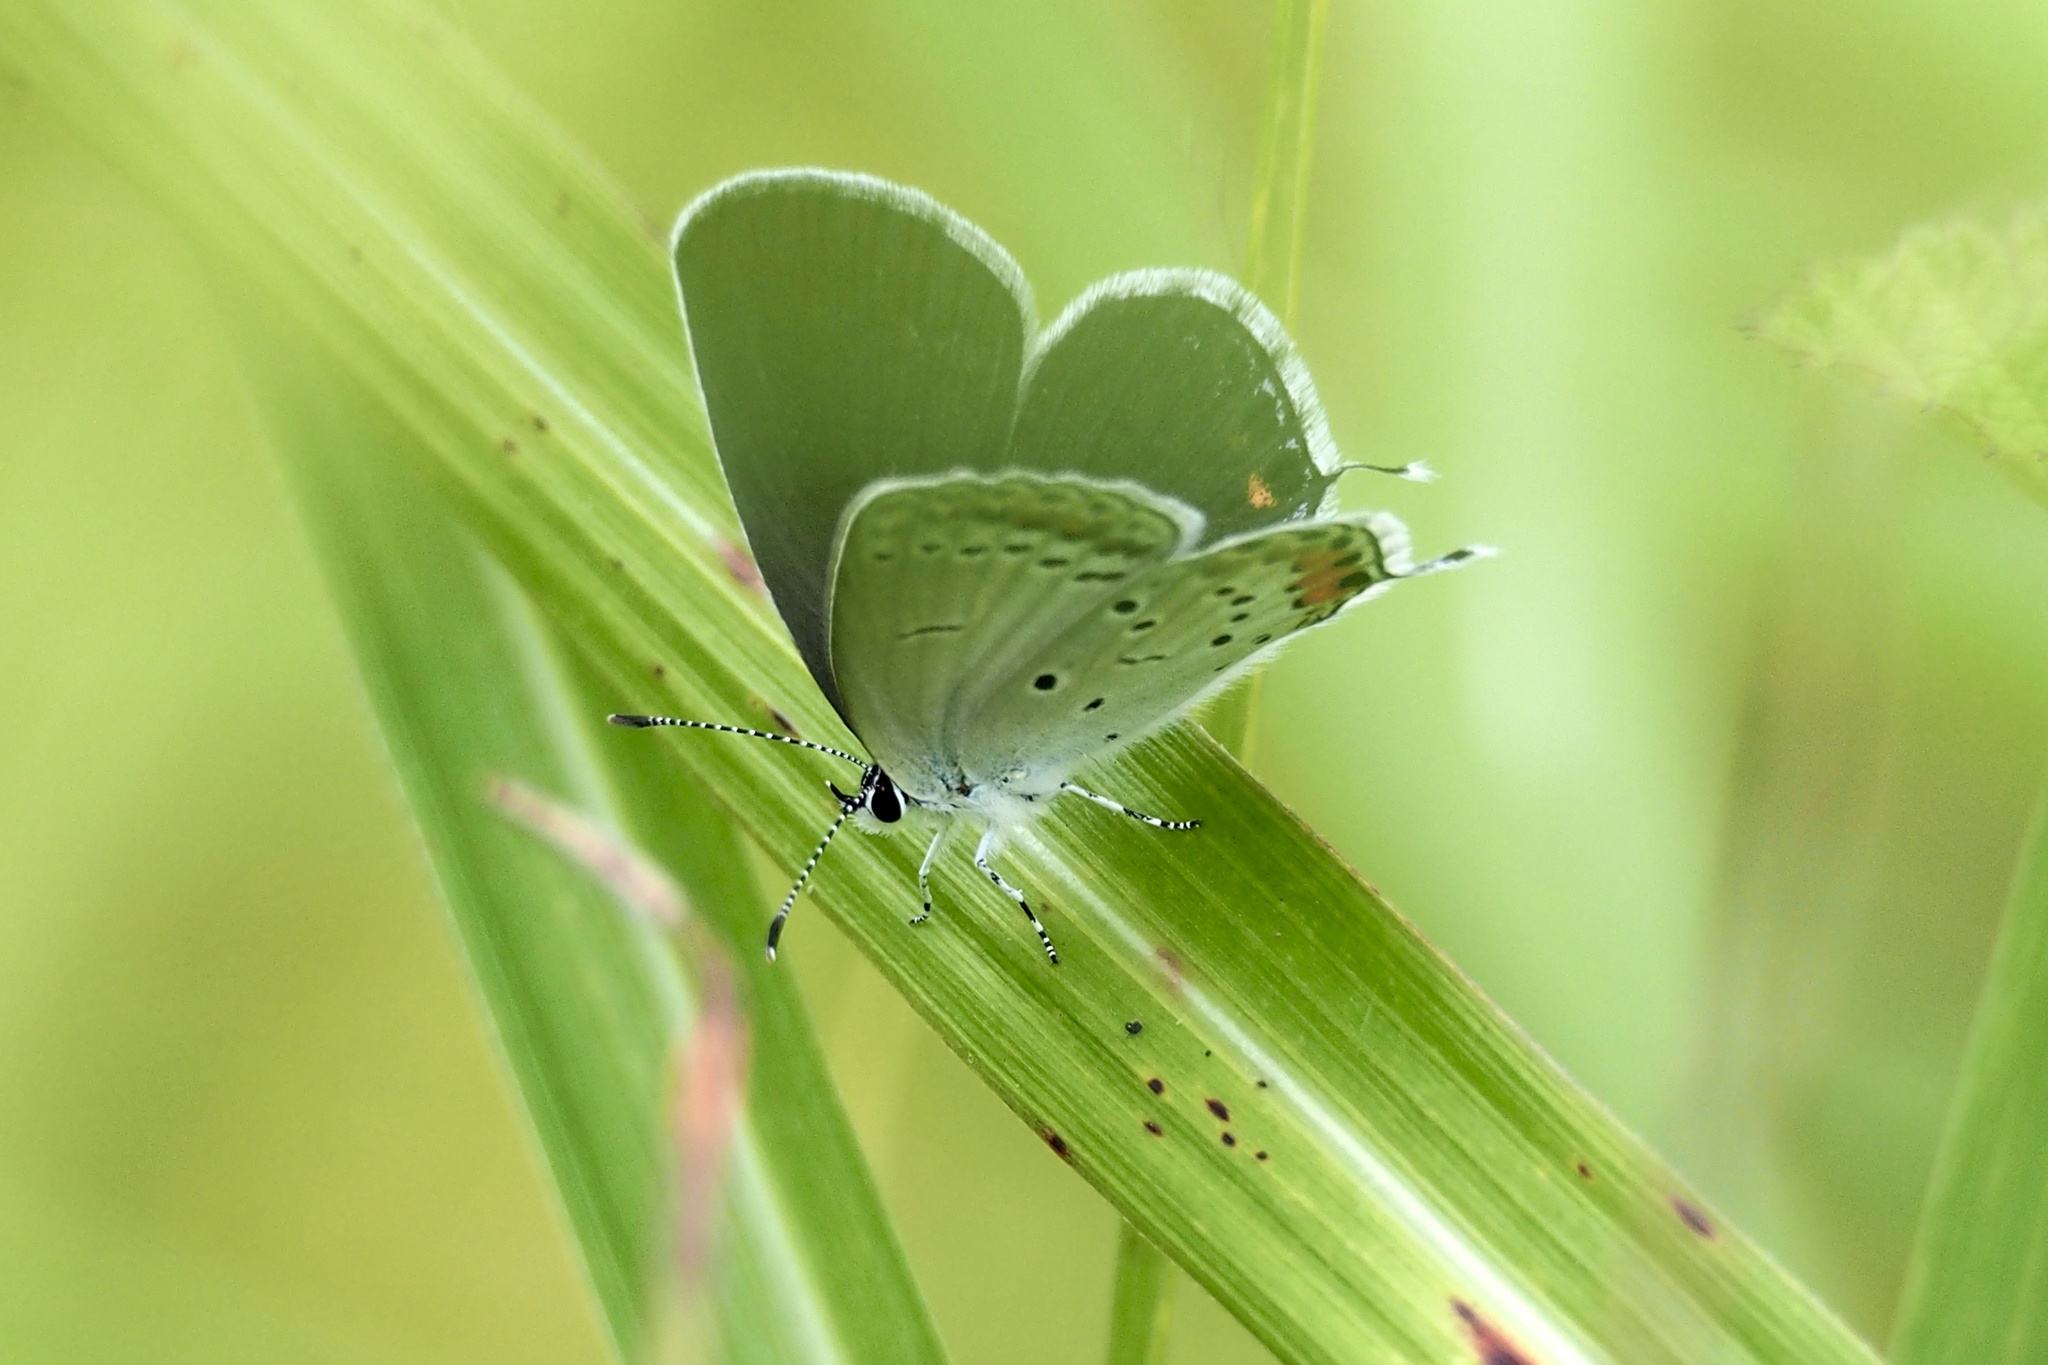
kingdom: Animalia
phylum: Arthropoda
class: Insecta
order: Lepidoptera
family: Lycaenidae
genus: Elkalyce
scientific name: Elkalyce argiades
